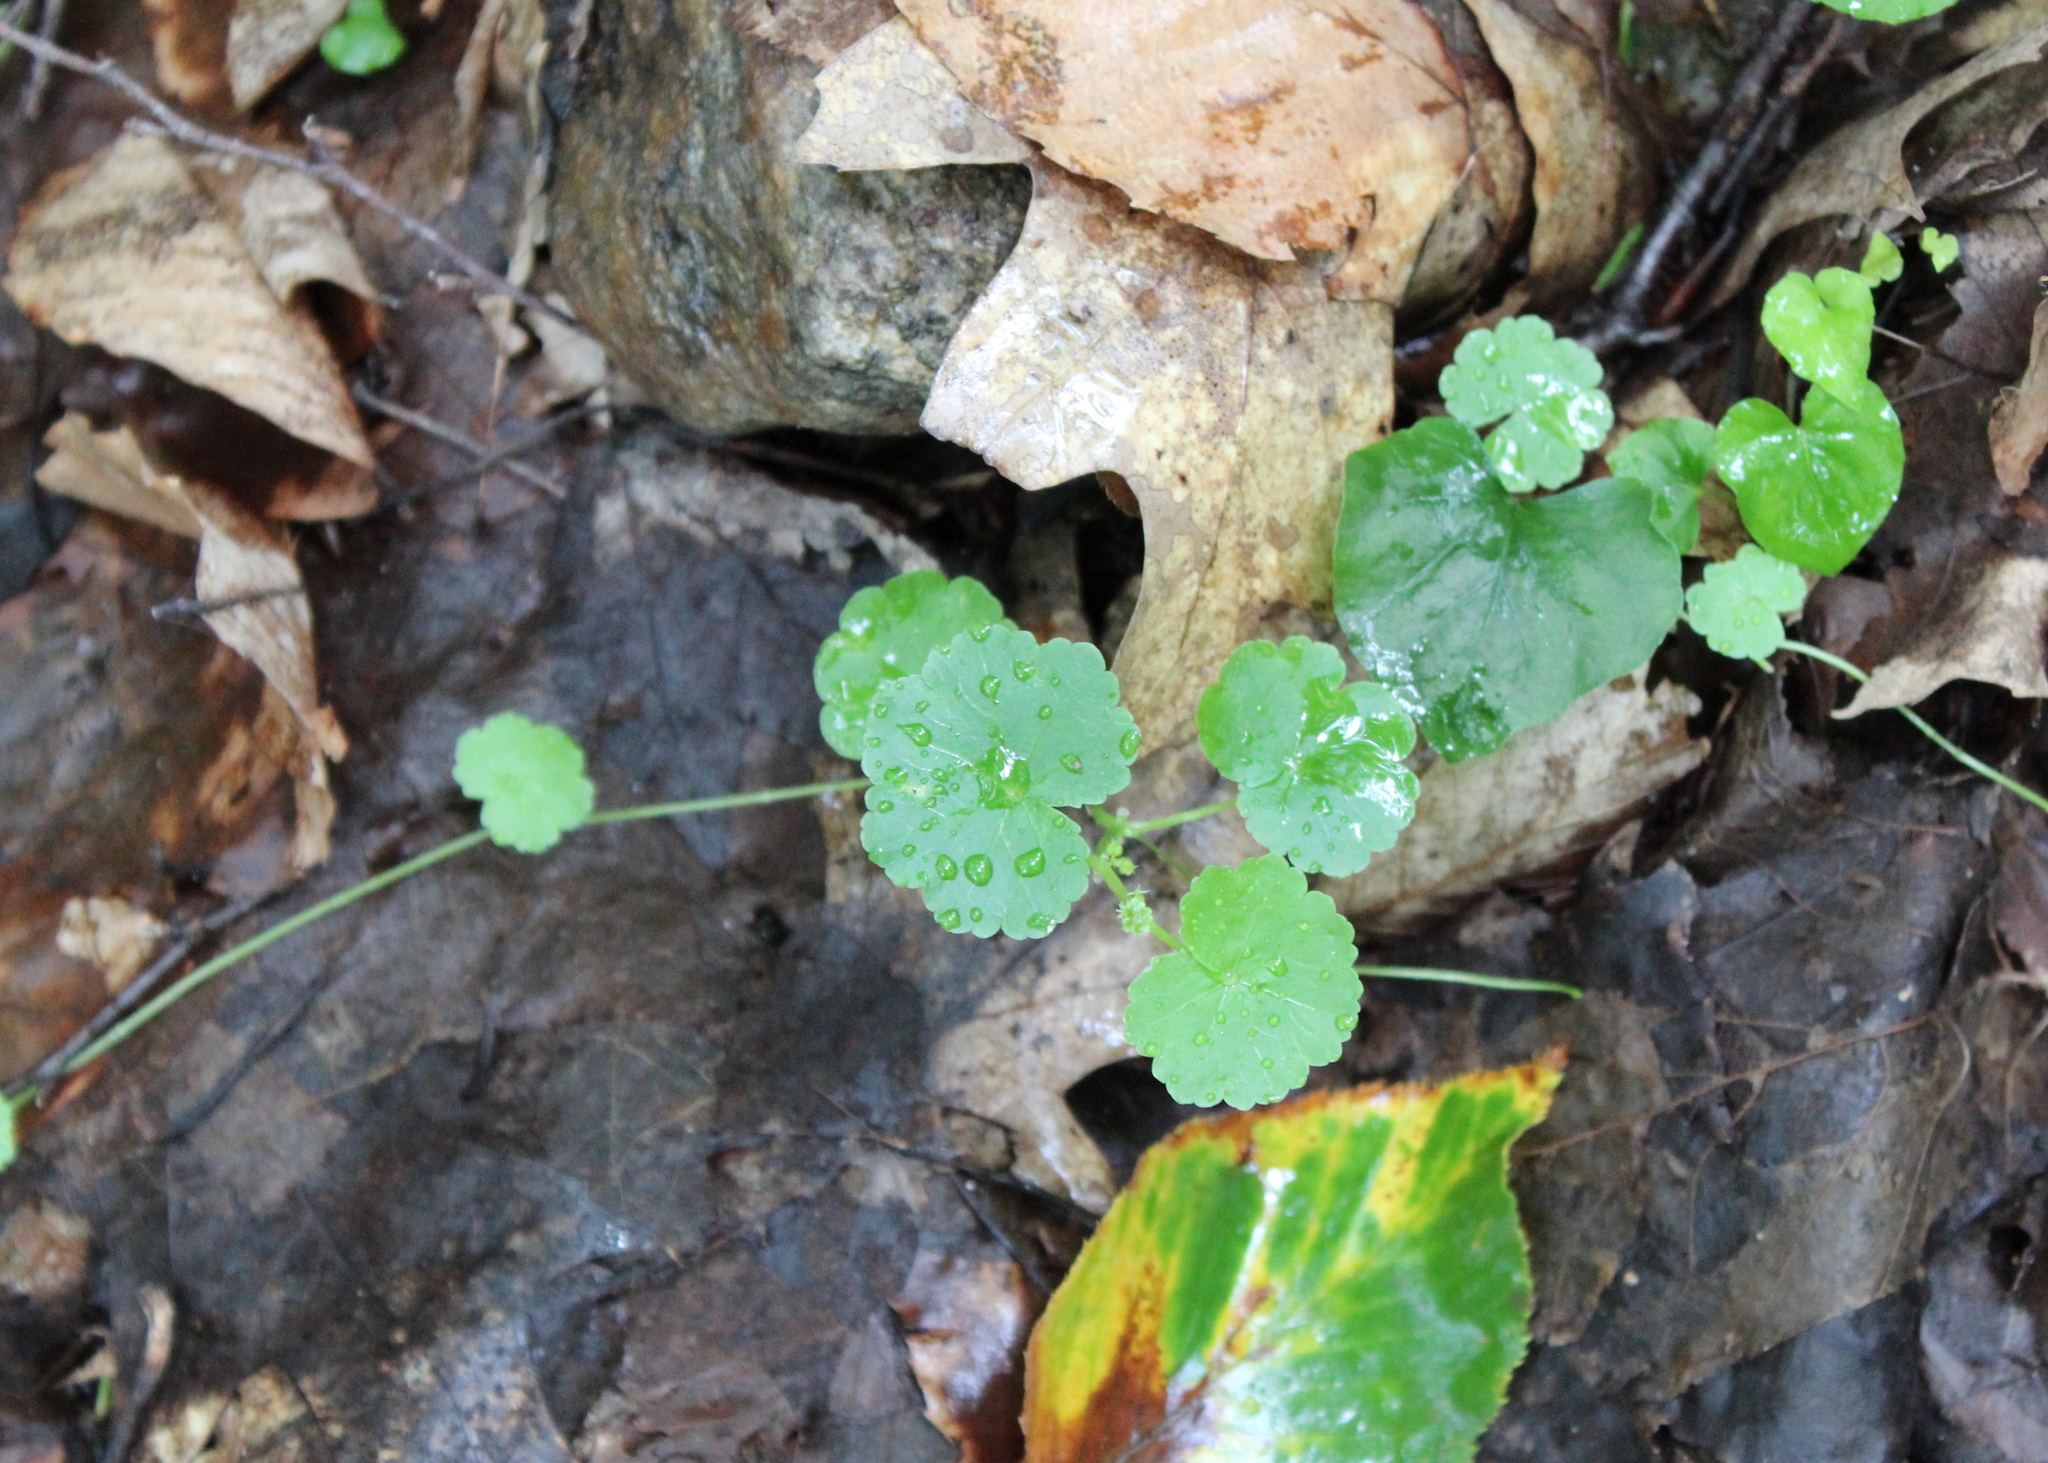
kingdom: Plantae
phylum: Tracheophyta
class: Magnoliopsida
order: Apiales
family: Araliaceae
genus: Hydrocotyle
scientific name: Hydrocotyle americana
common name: American water-pennywort
